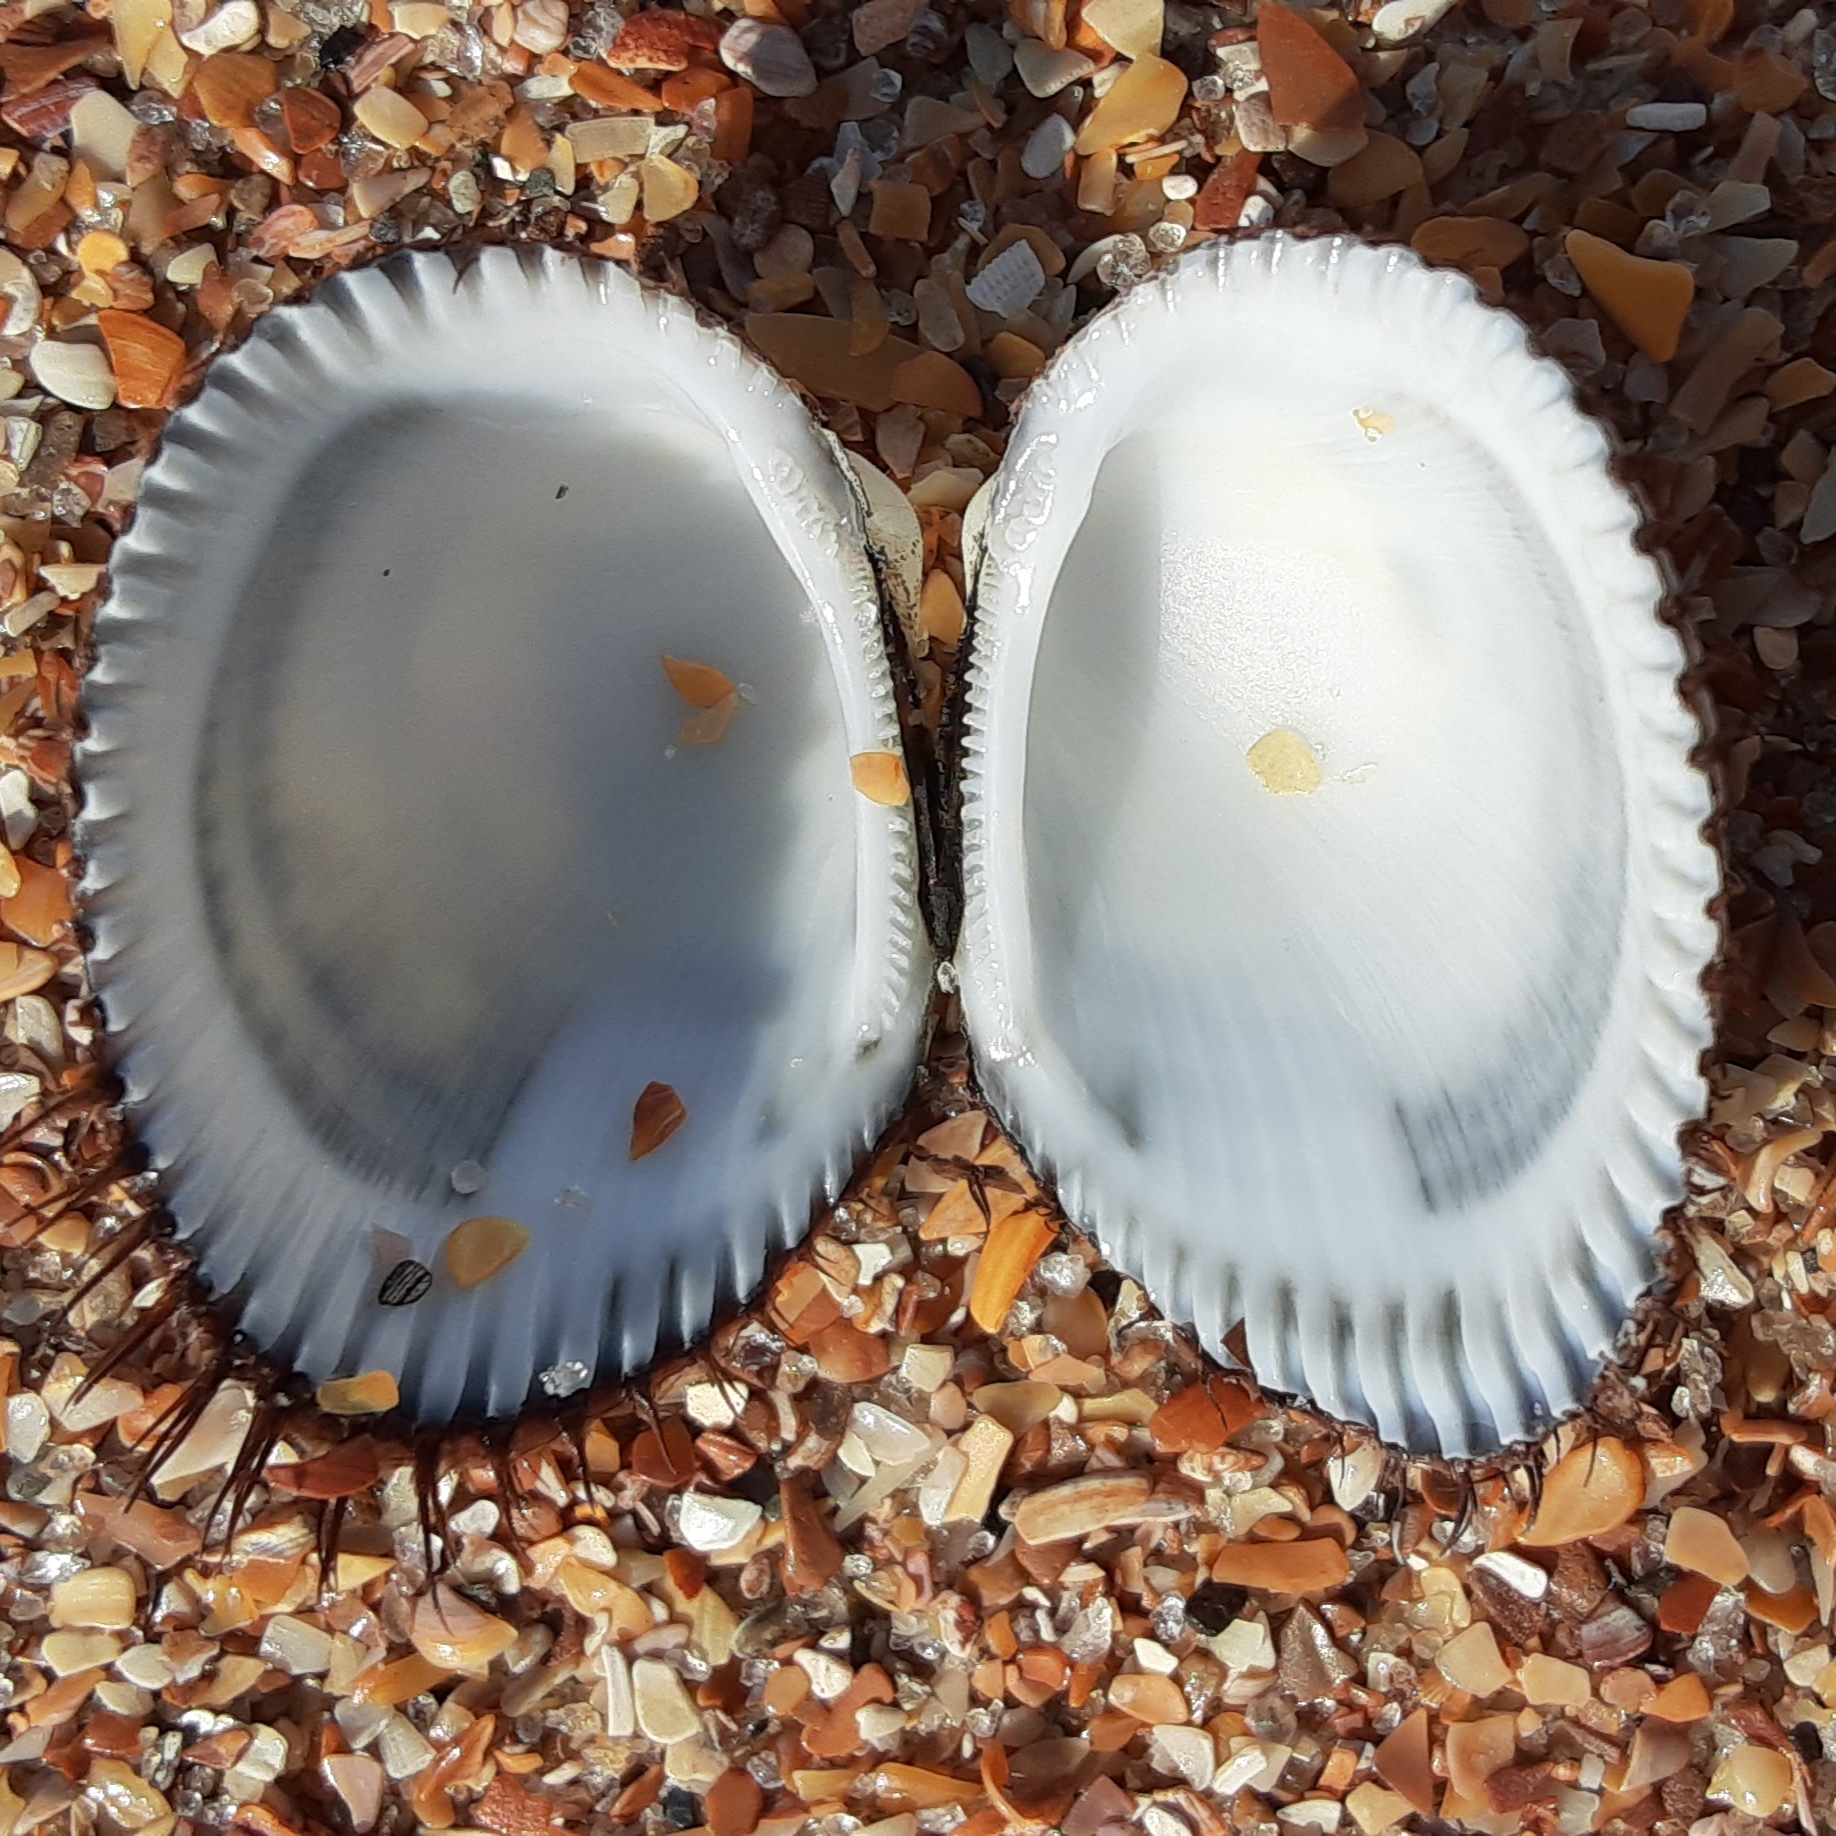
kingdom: Animalia
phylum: Mollusca
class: Bivalvia
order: Arcida
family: Arcidae
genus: Lunarca
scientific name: Lunarca ovalis
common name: Blood ark
